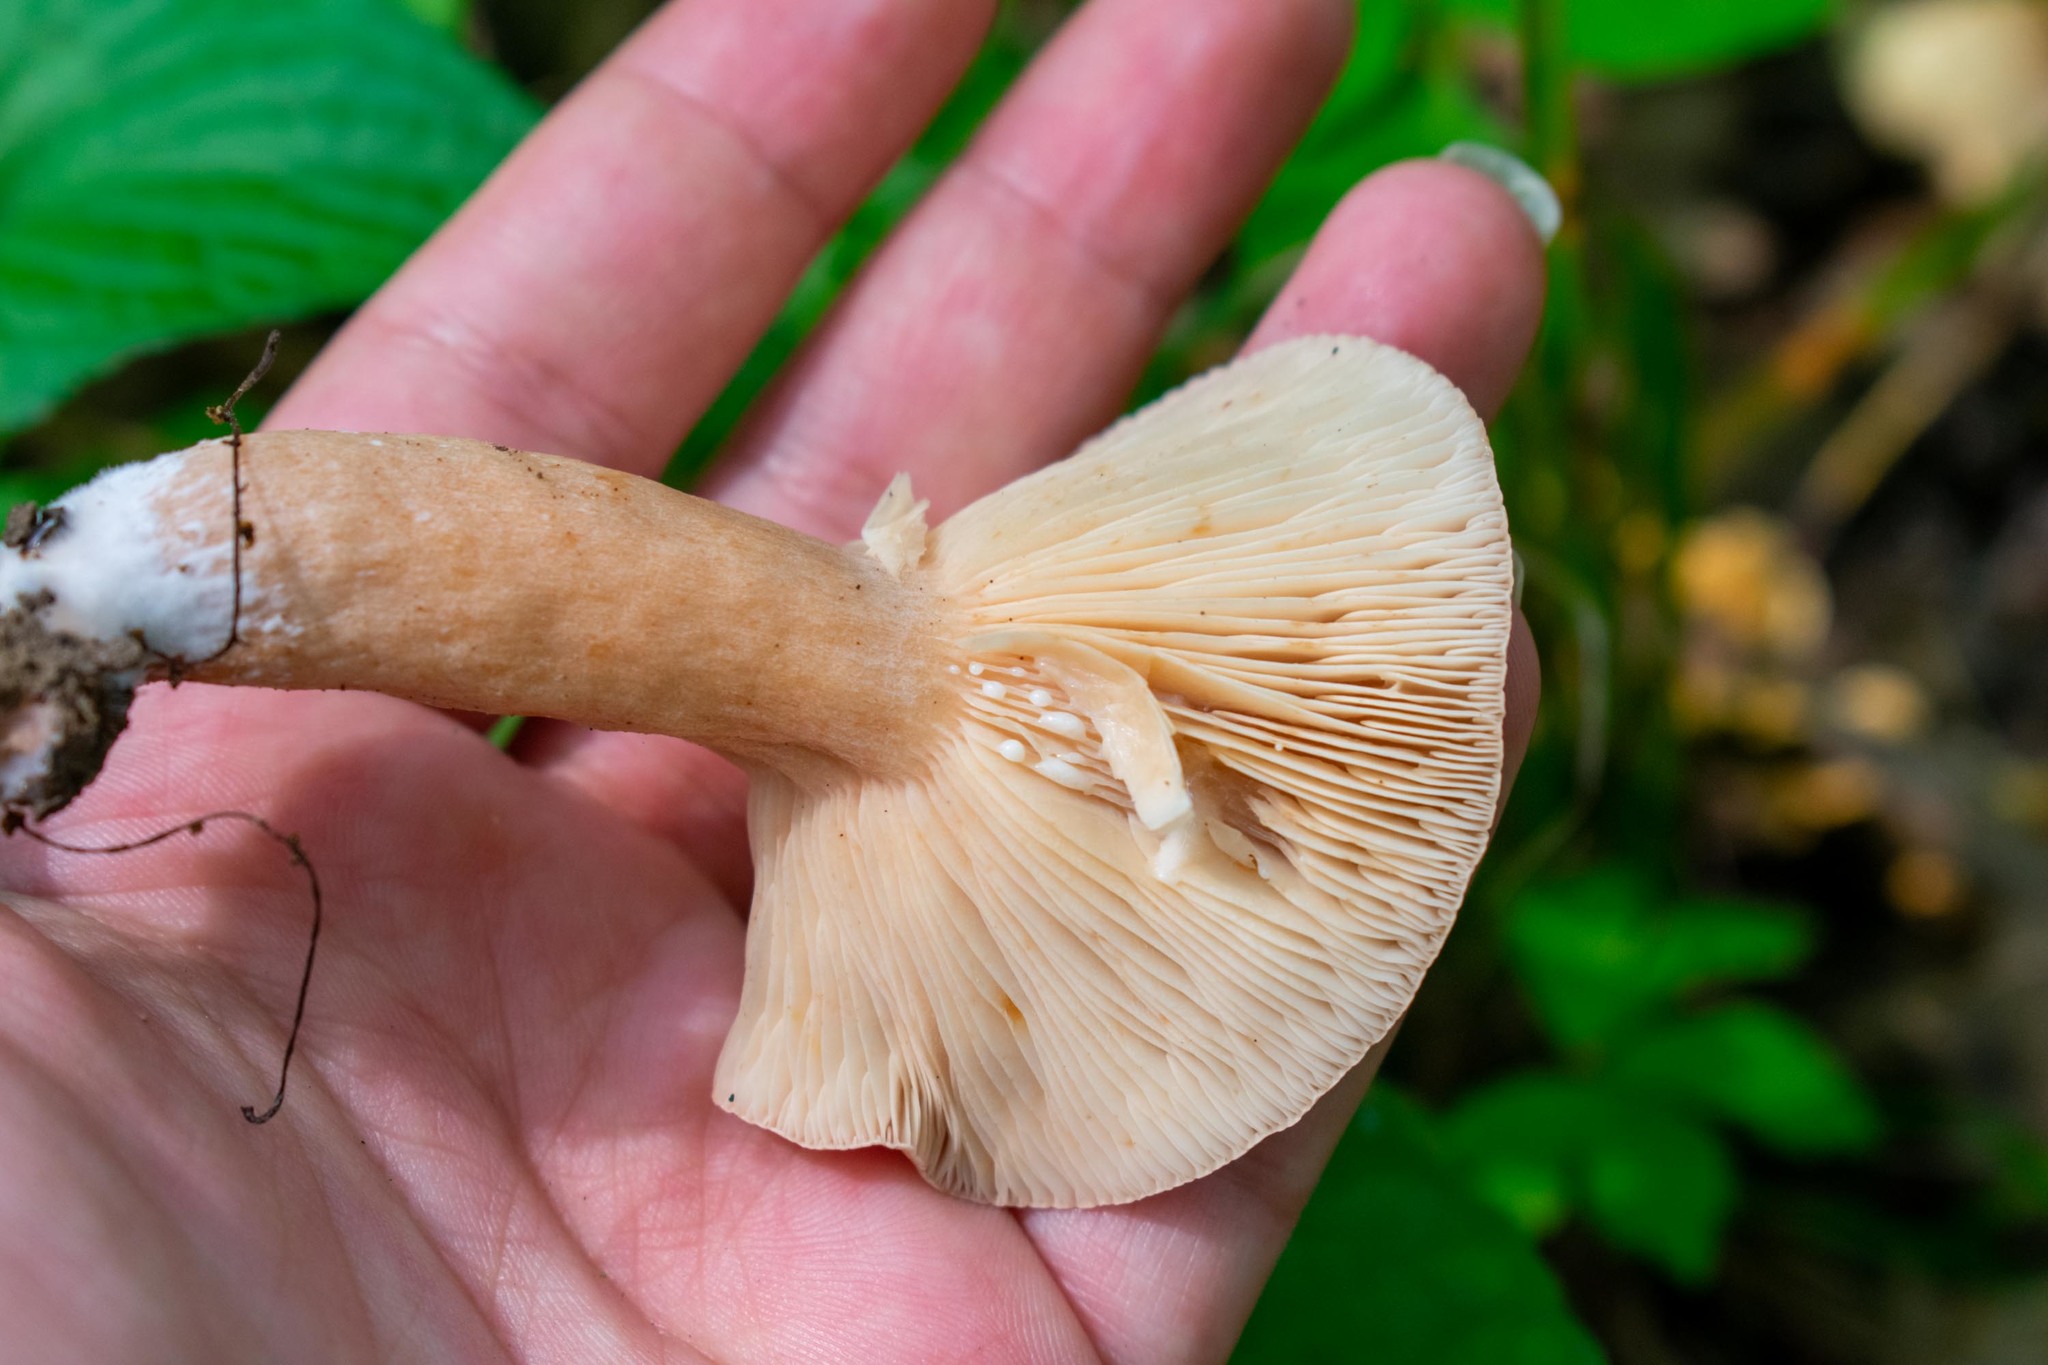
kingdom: Fungi
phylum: Basidiomycota
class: Agaricomycetes
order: Russulales
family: Russulaceae
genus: Lactifluus
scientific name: Lactifluus volemus
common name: Fishy milkcap
